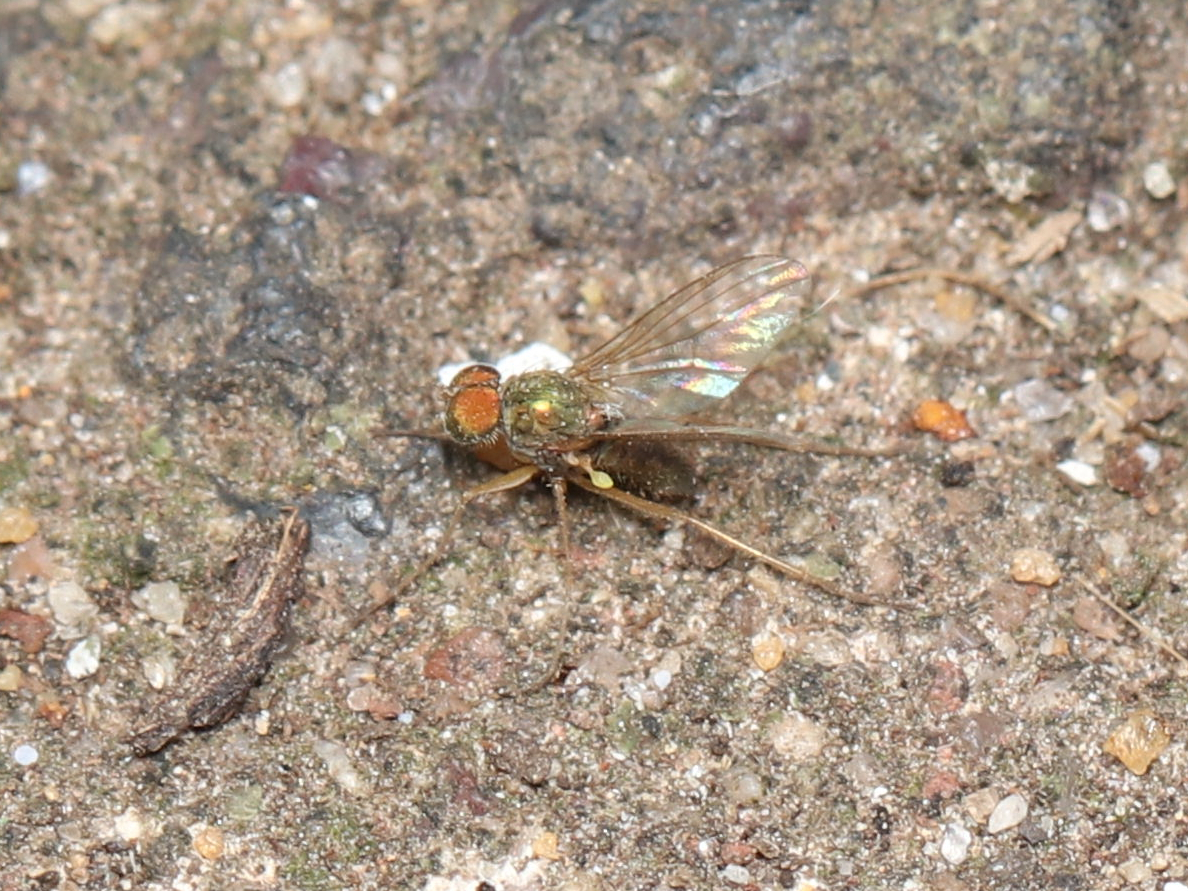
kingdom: Animalia
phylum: Arthropoda
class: Insecta
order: Diptera
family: Dolichopodidae
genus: Chrysotus
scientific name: Chrysotus
